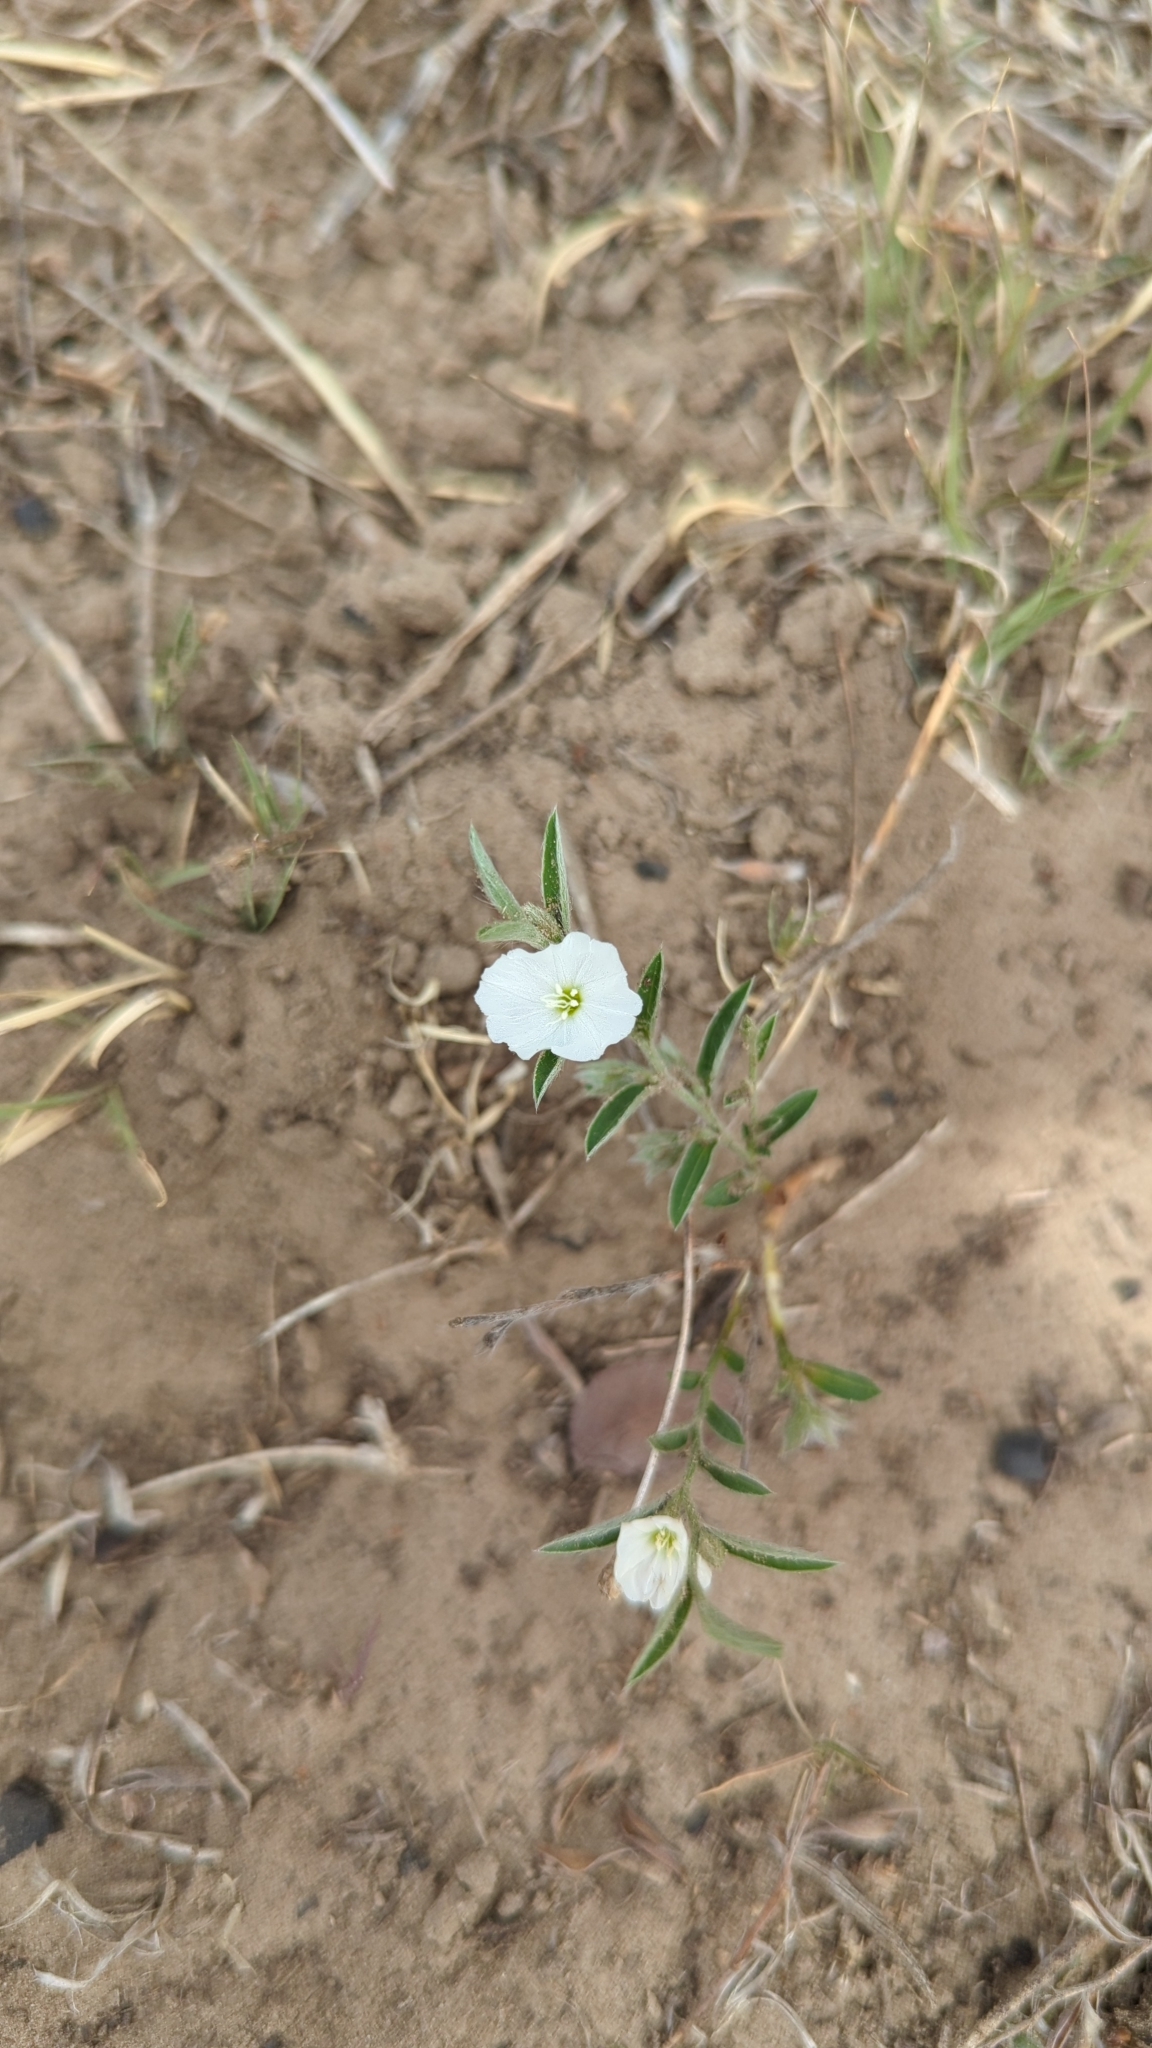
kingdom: Plantae
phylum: Tracheophyta
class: Magnoliopsida
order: Solanales
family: Convolvulaceae
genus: Evolvulus
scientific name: Evolvulus sericeus
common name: Blue dots
